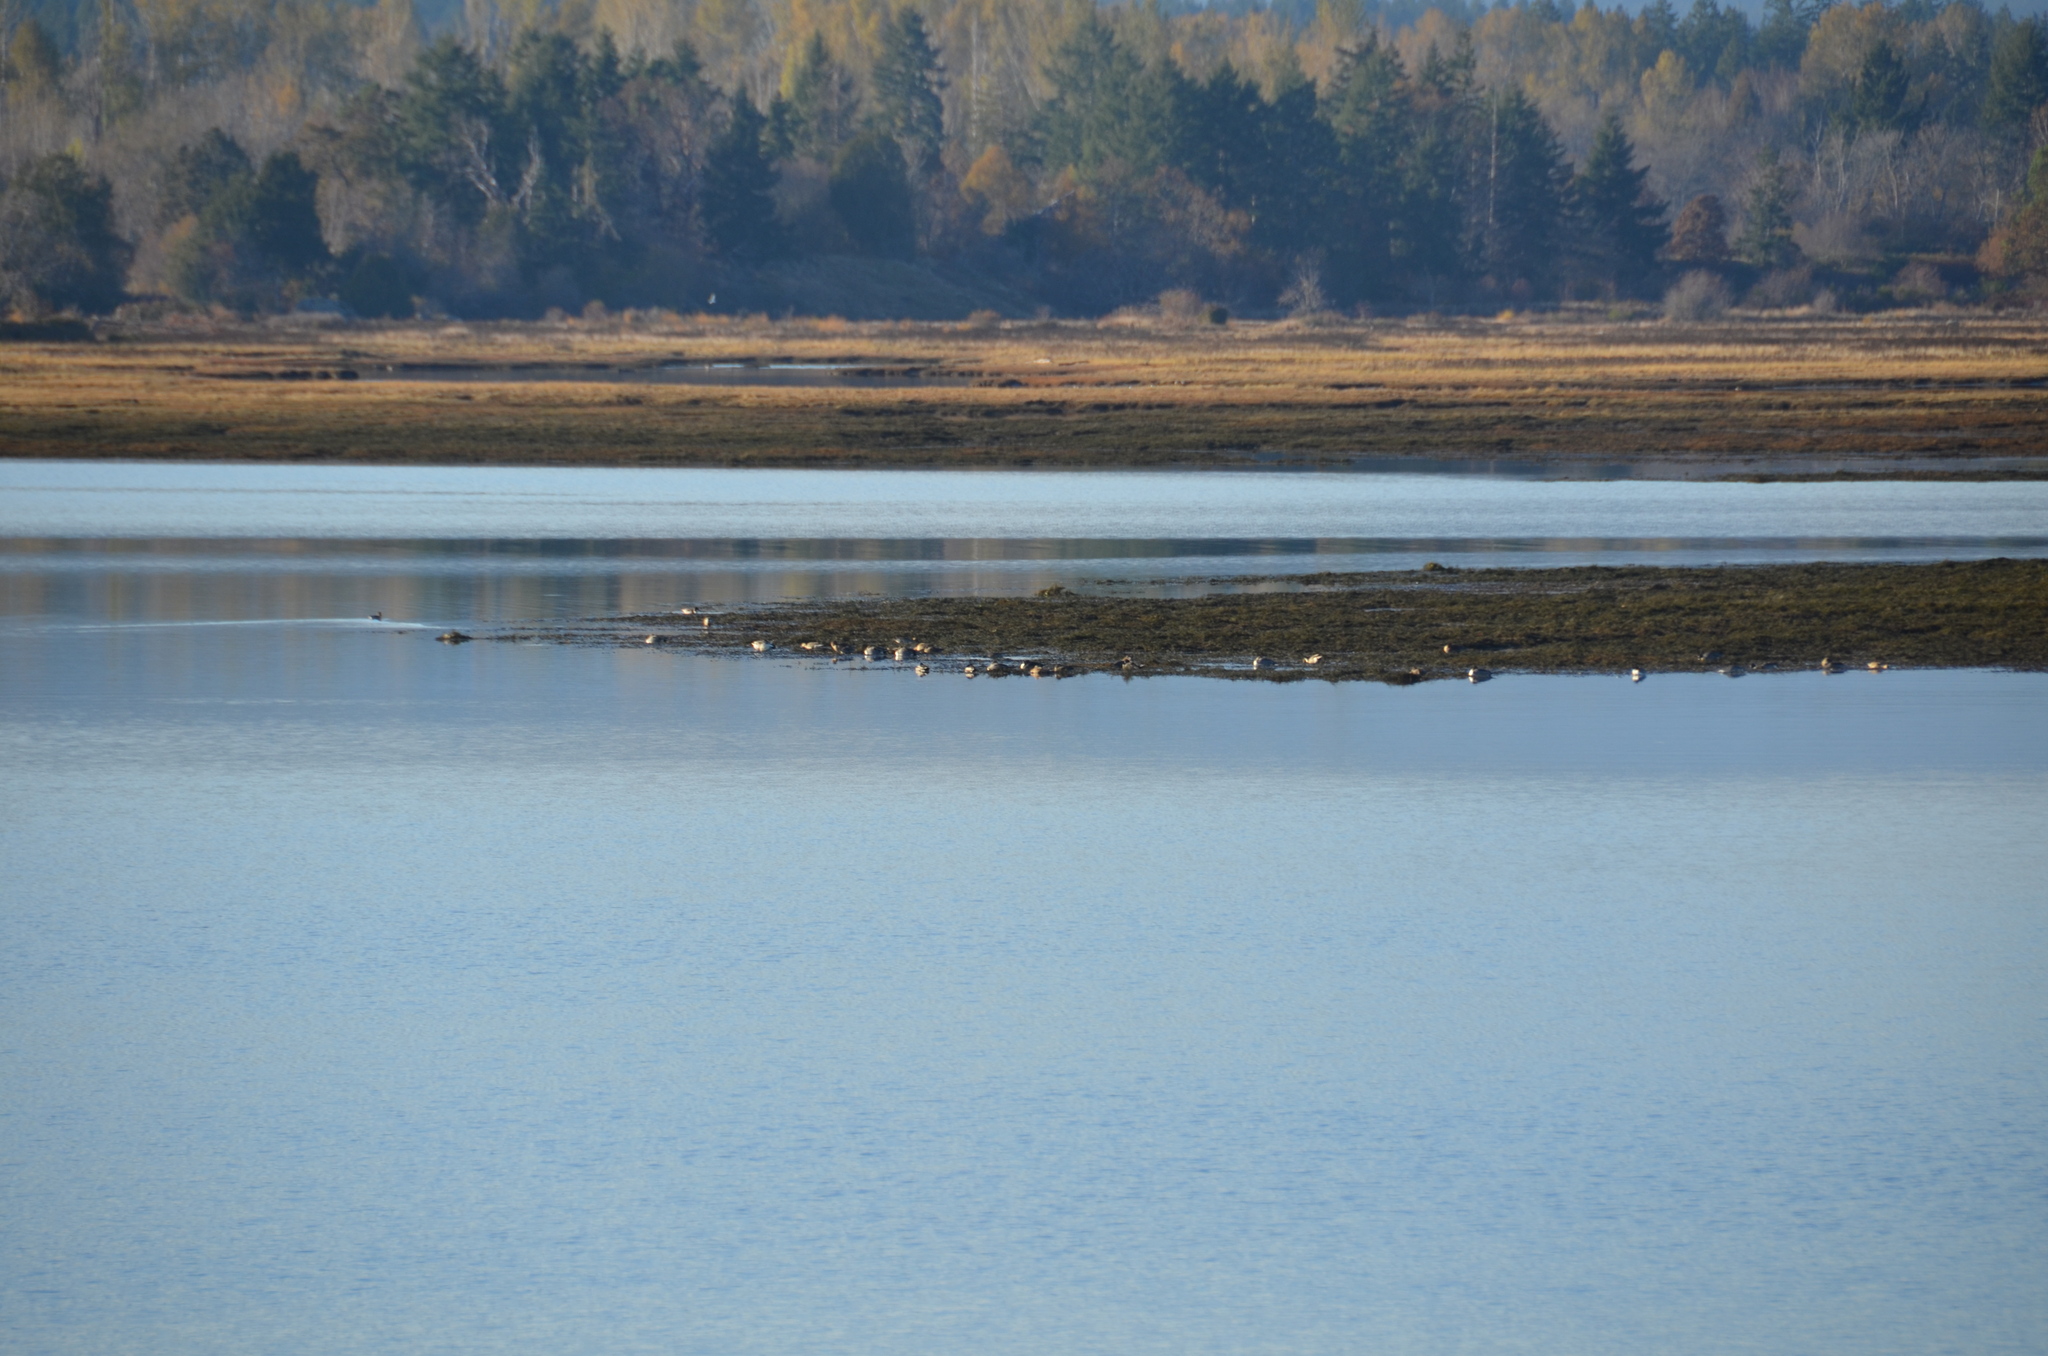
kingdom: Animalia
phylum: Chordata
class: Aves
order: Anseriformes
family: Anatidae
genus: Anas
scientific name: Anas acuta
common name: Northern pintail
